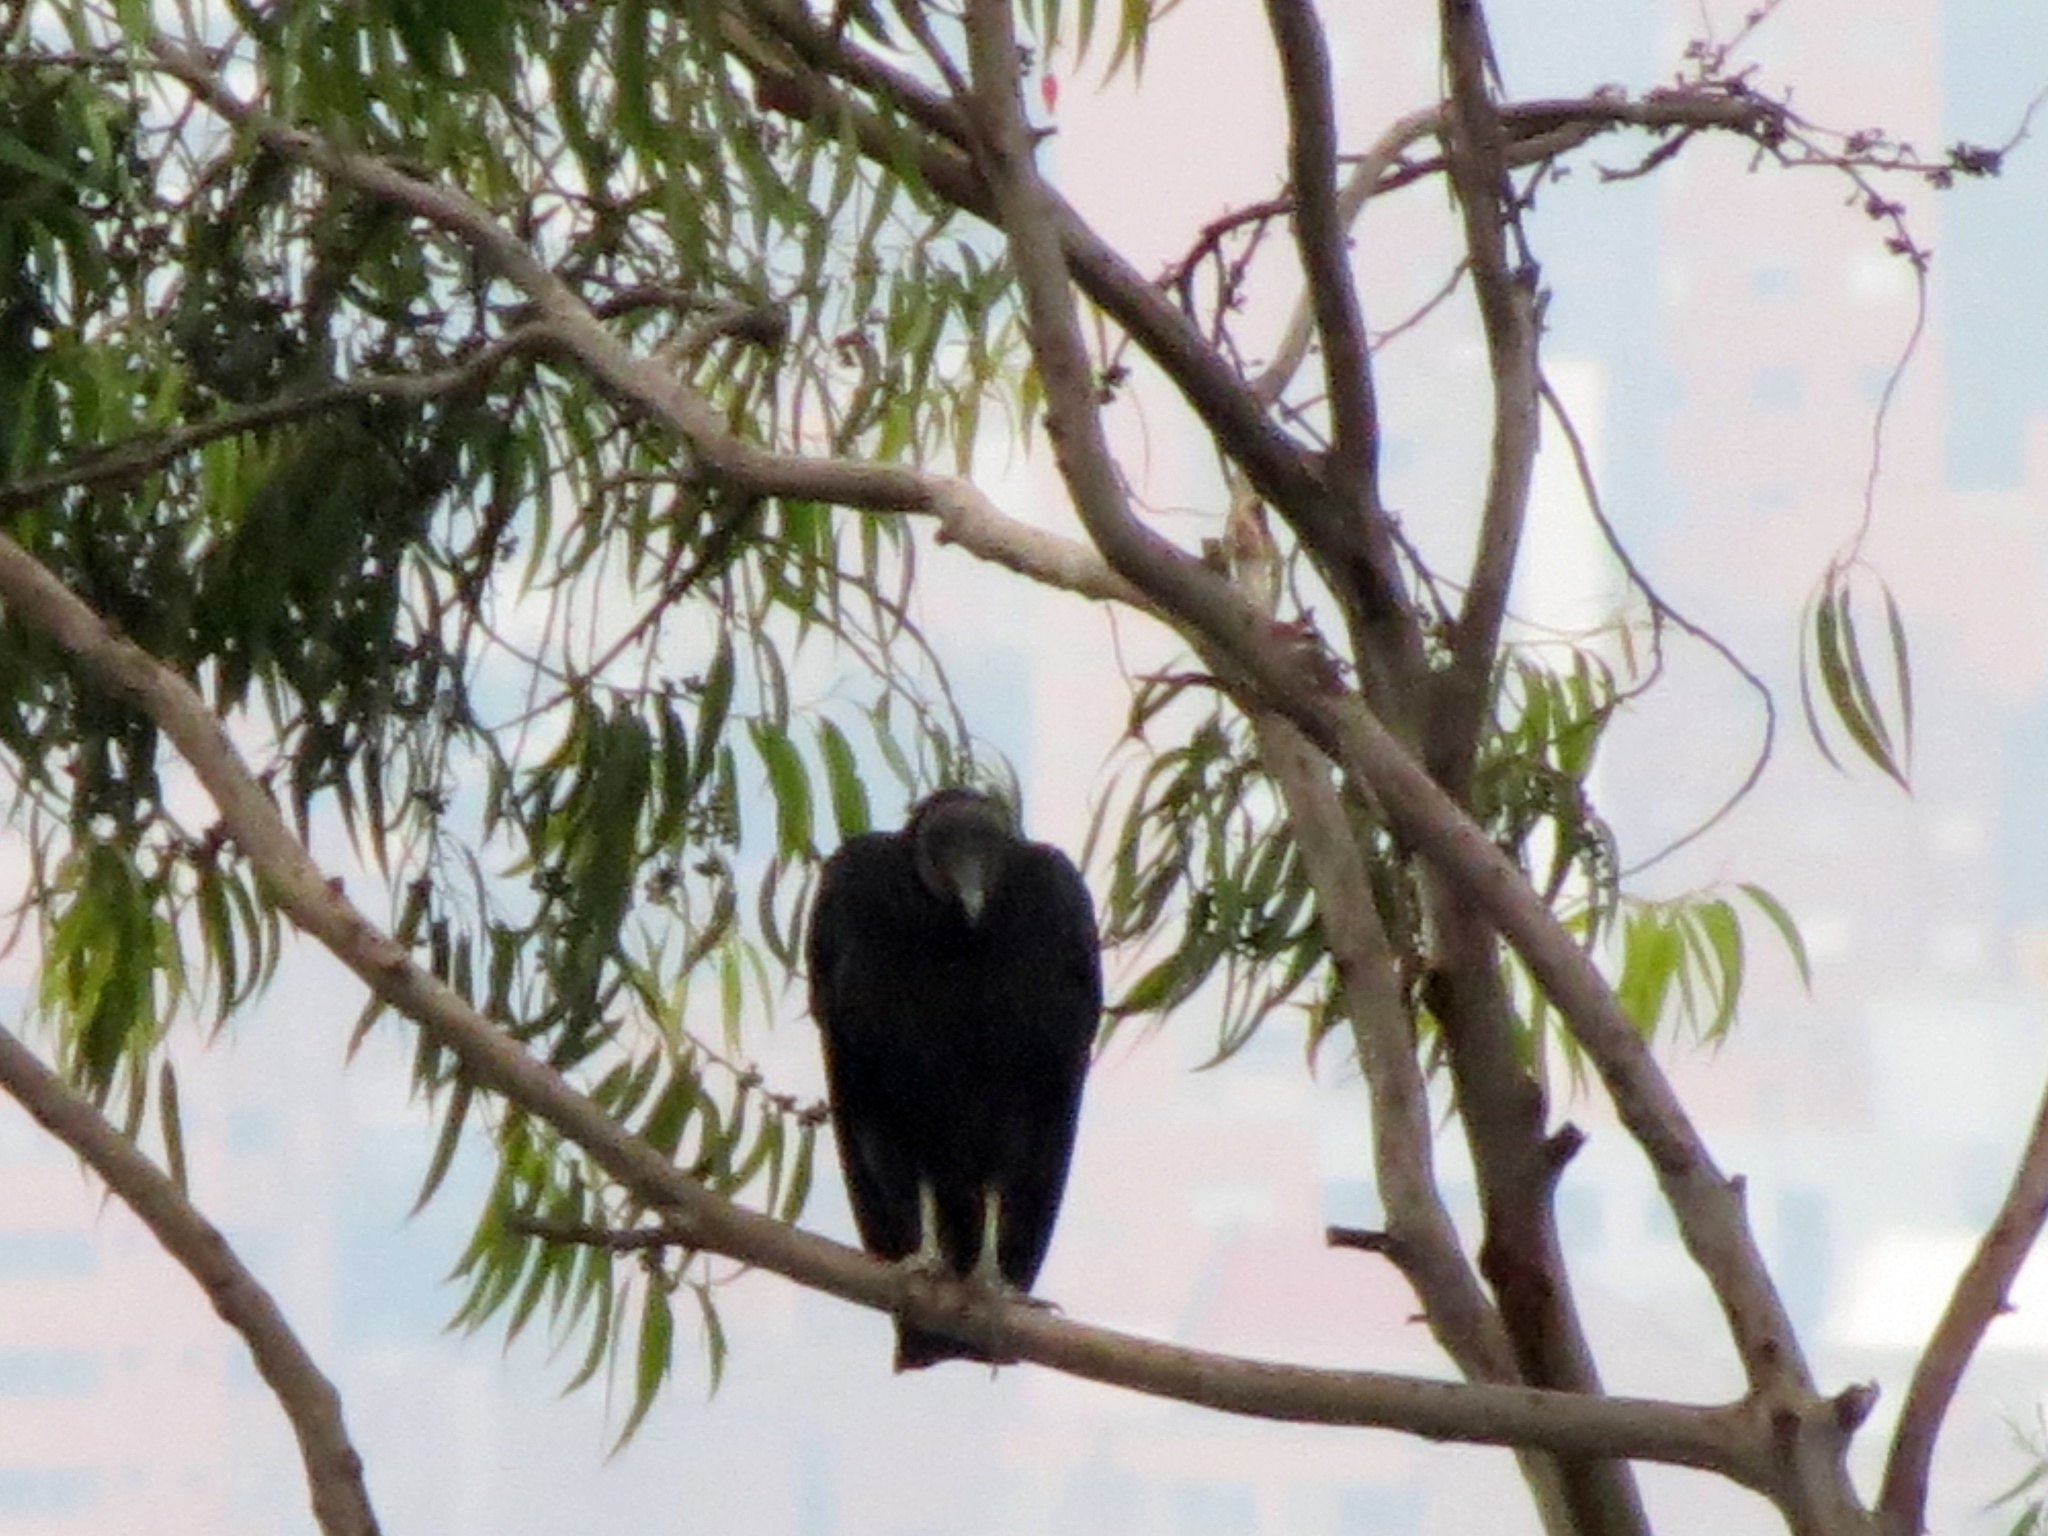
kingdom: Animalia
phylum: Chordata
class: Aves
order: Accipitriformes
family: Cathartidae
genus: Coragyps
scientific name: Coragyps atratus
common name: Black vulture
